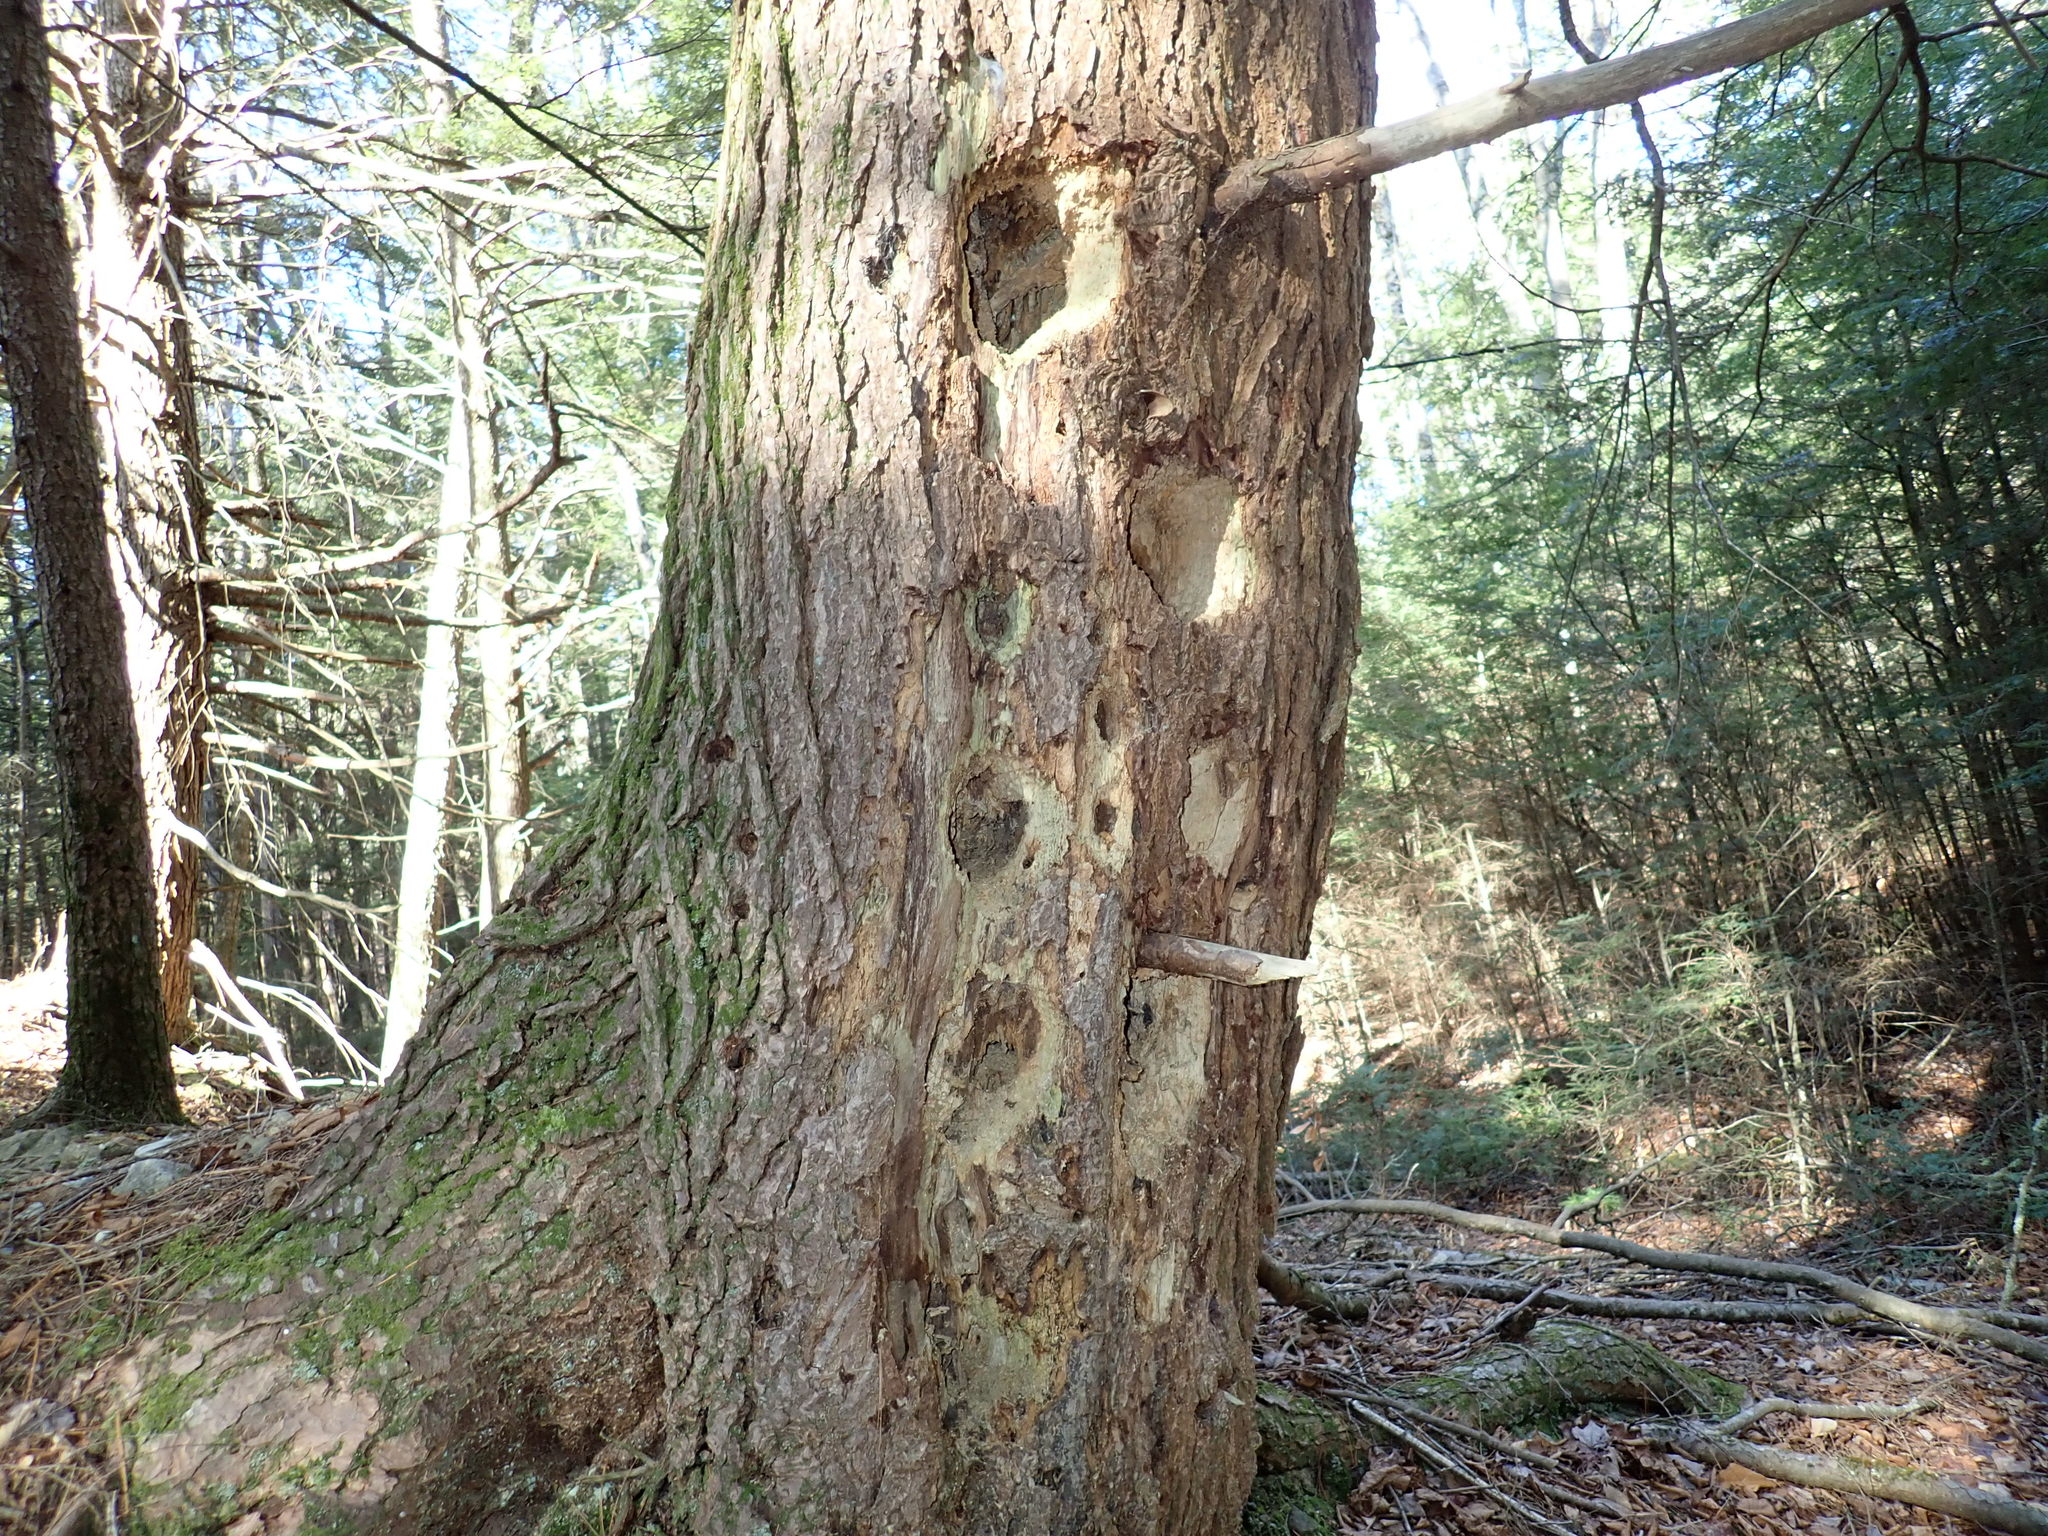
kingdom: Animalia
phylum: Chordata
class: Aves
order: Piciformes
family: Picidae
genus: Dryocopus
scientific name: Dryocopus pileatus
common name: Pileated woodpecker
